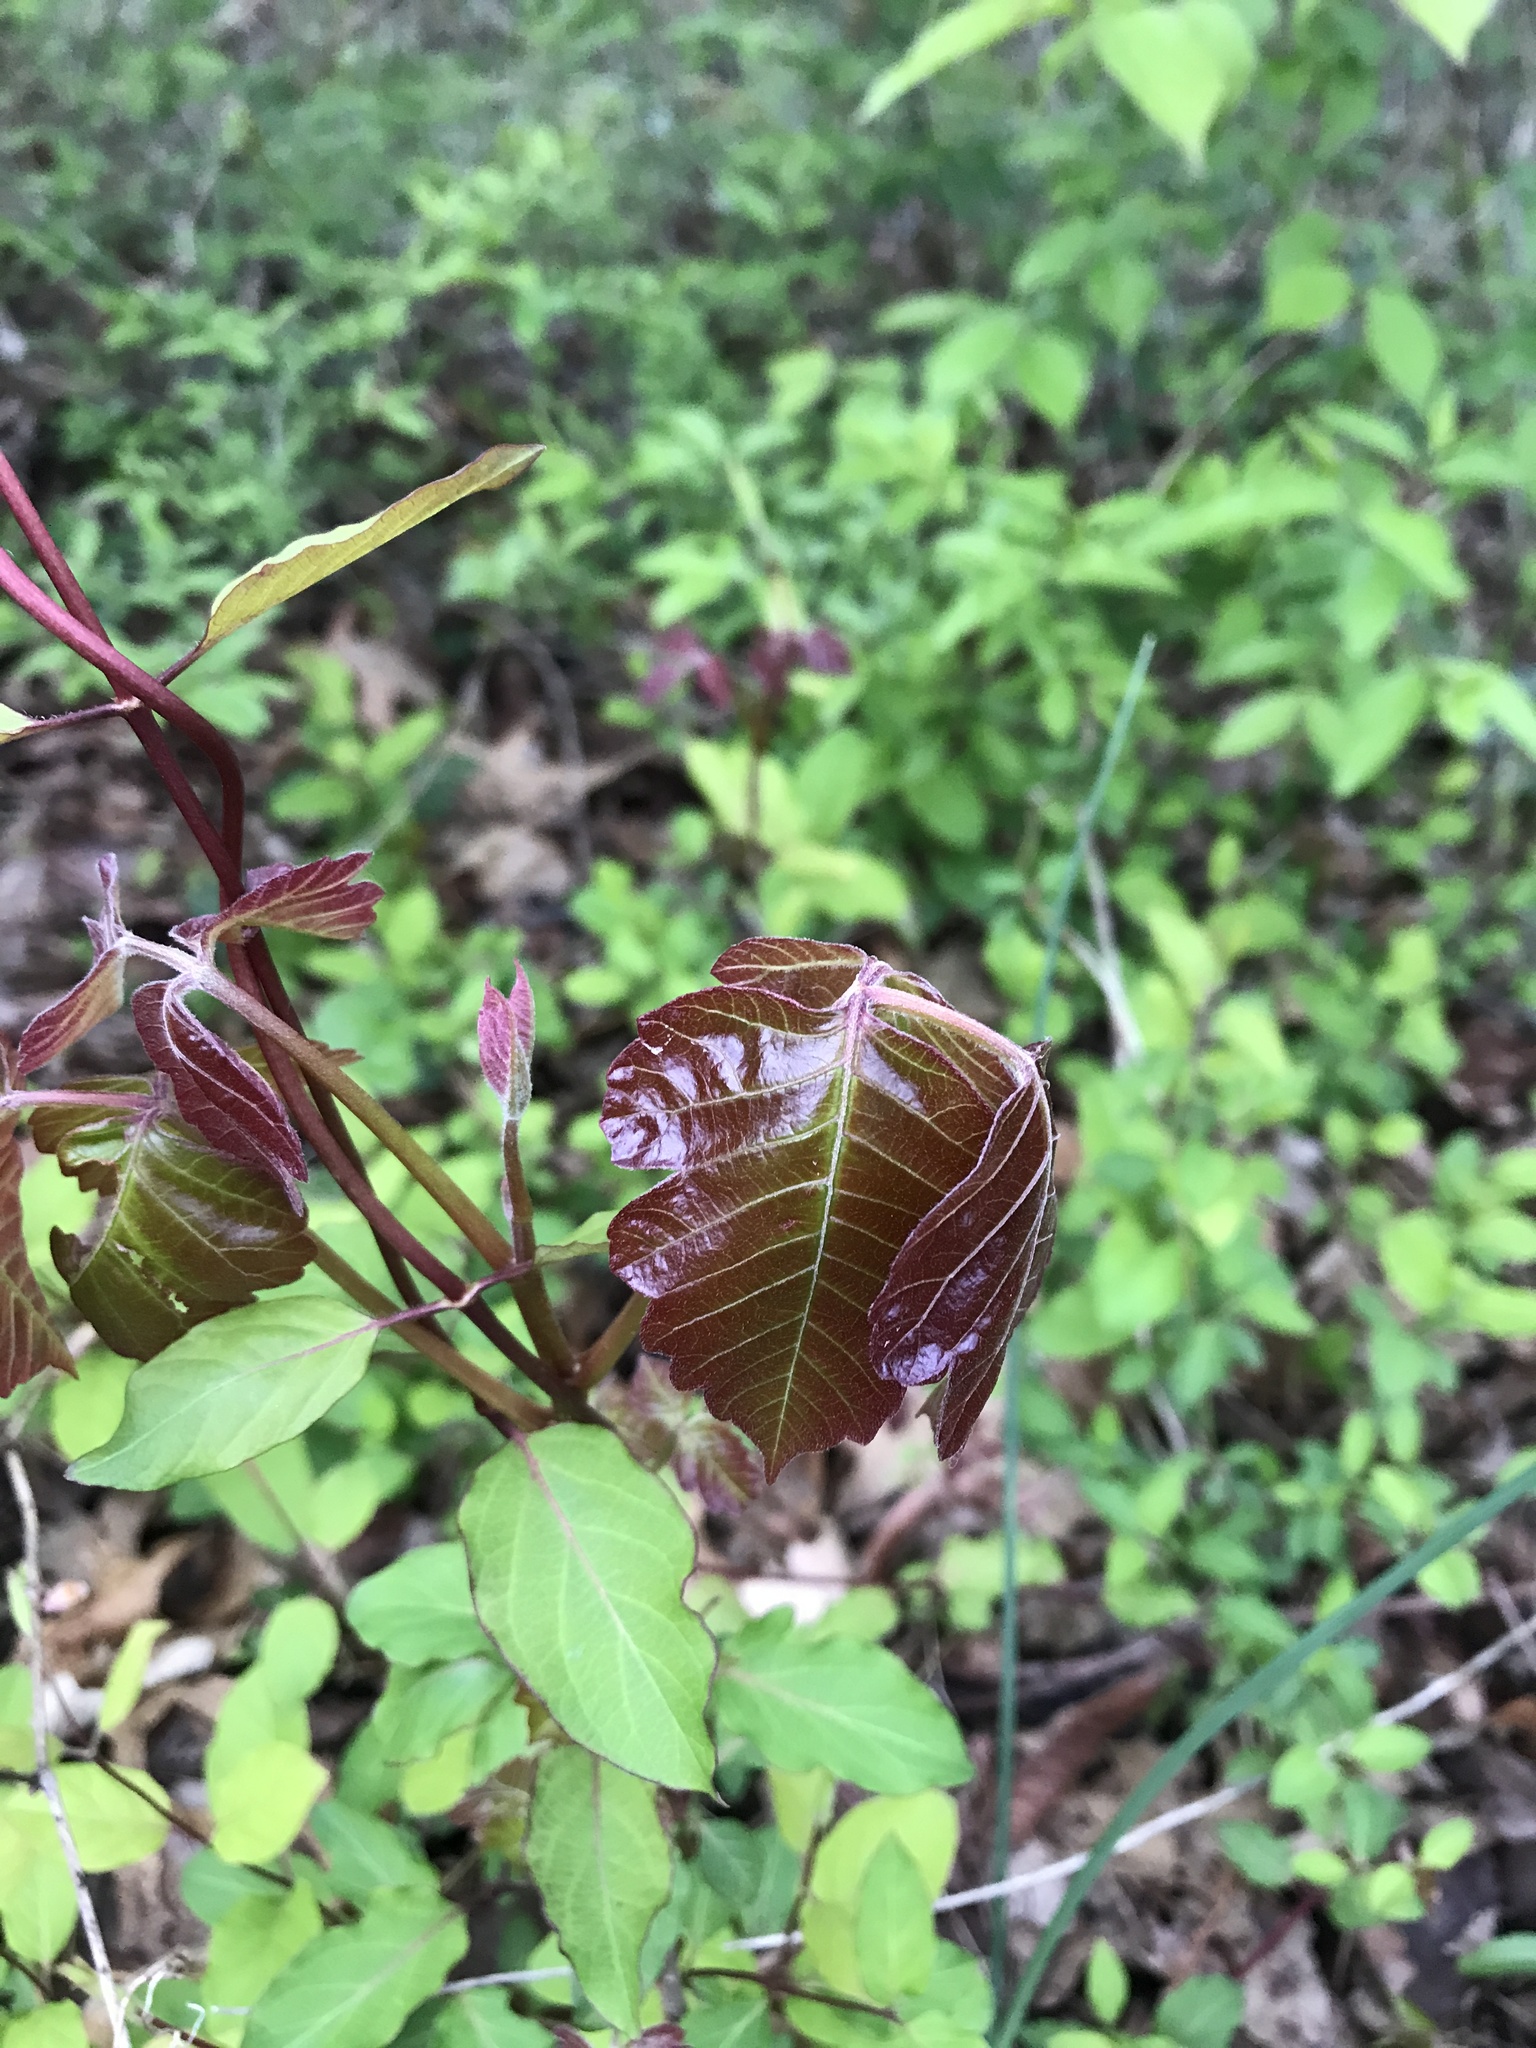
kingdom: Plantae
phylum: Tracheophyta
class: Magnoliopsida
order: Sapindales
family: Anacardiaceae
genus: Toxicodendron
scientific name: Toxicodendron radicans
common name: Poison ivy
